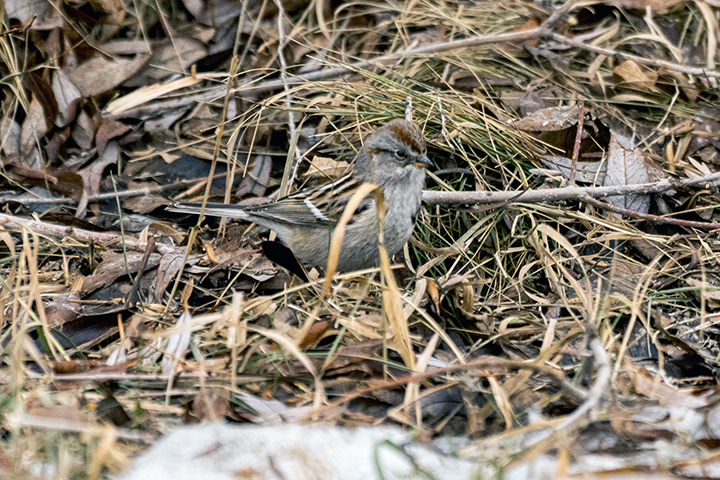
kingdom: Animalia
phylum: Chordata
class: Aves
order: Passeriformes
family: Passerellidae
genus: Spizelloides
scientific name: Spizelloides arborea
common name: American tree sparrow
